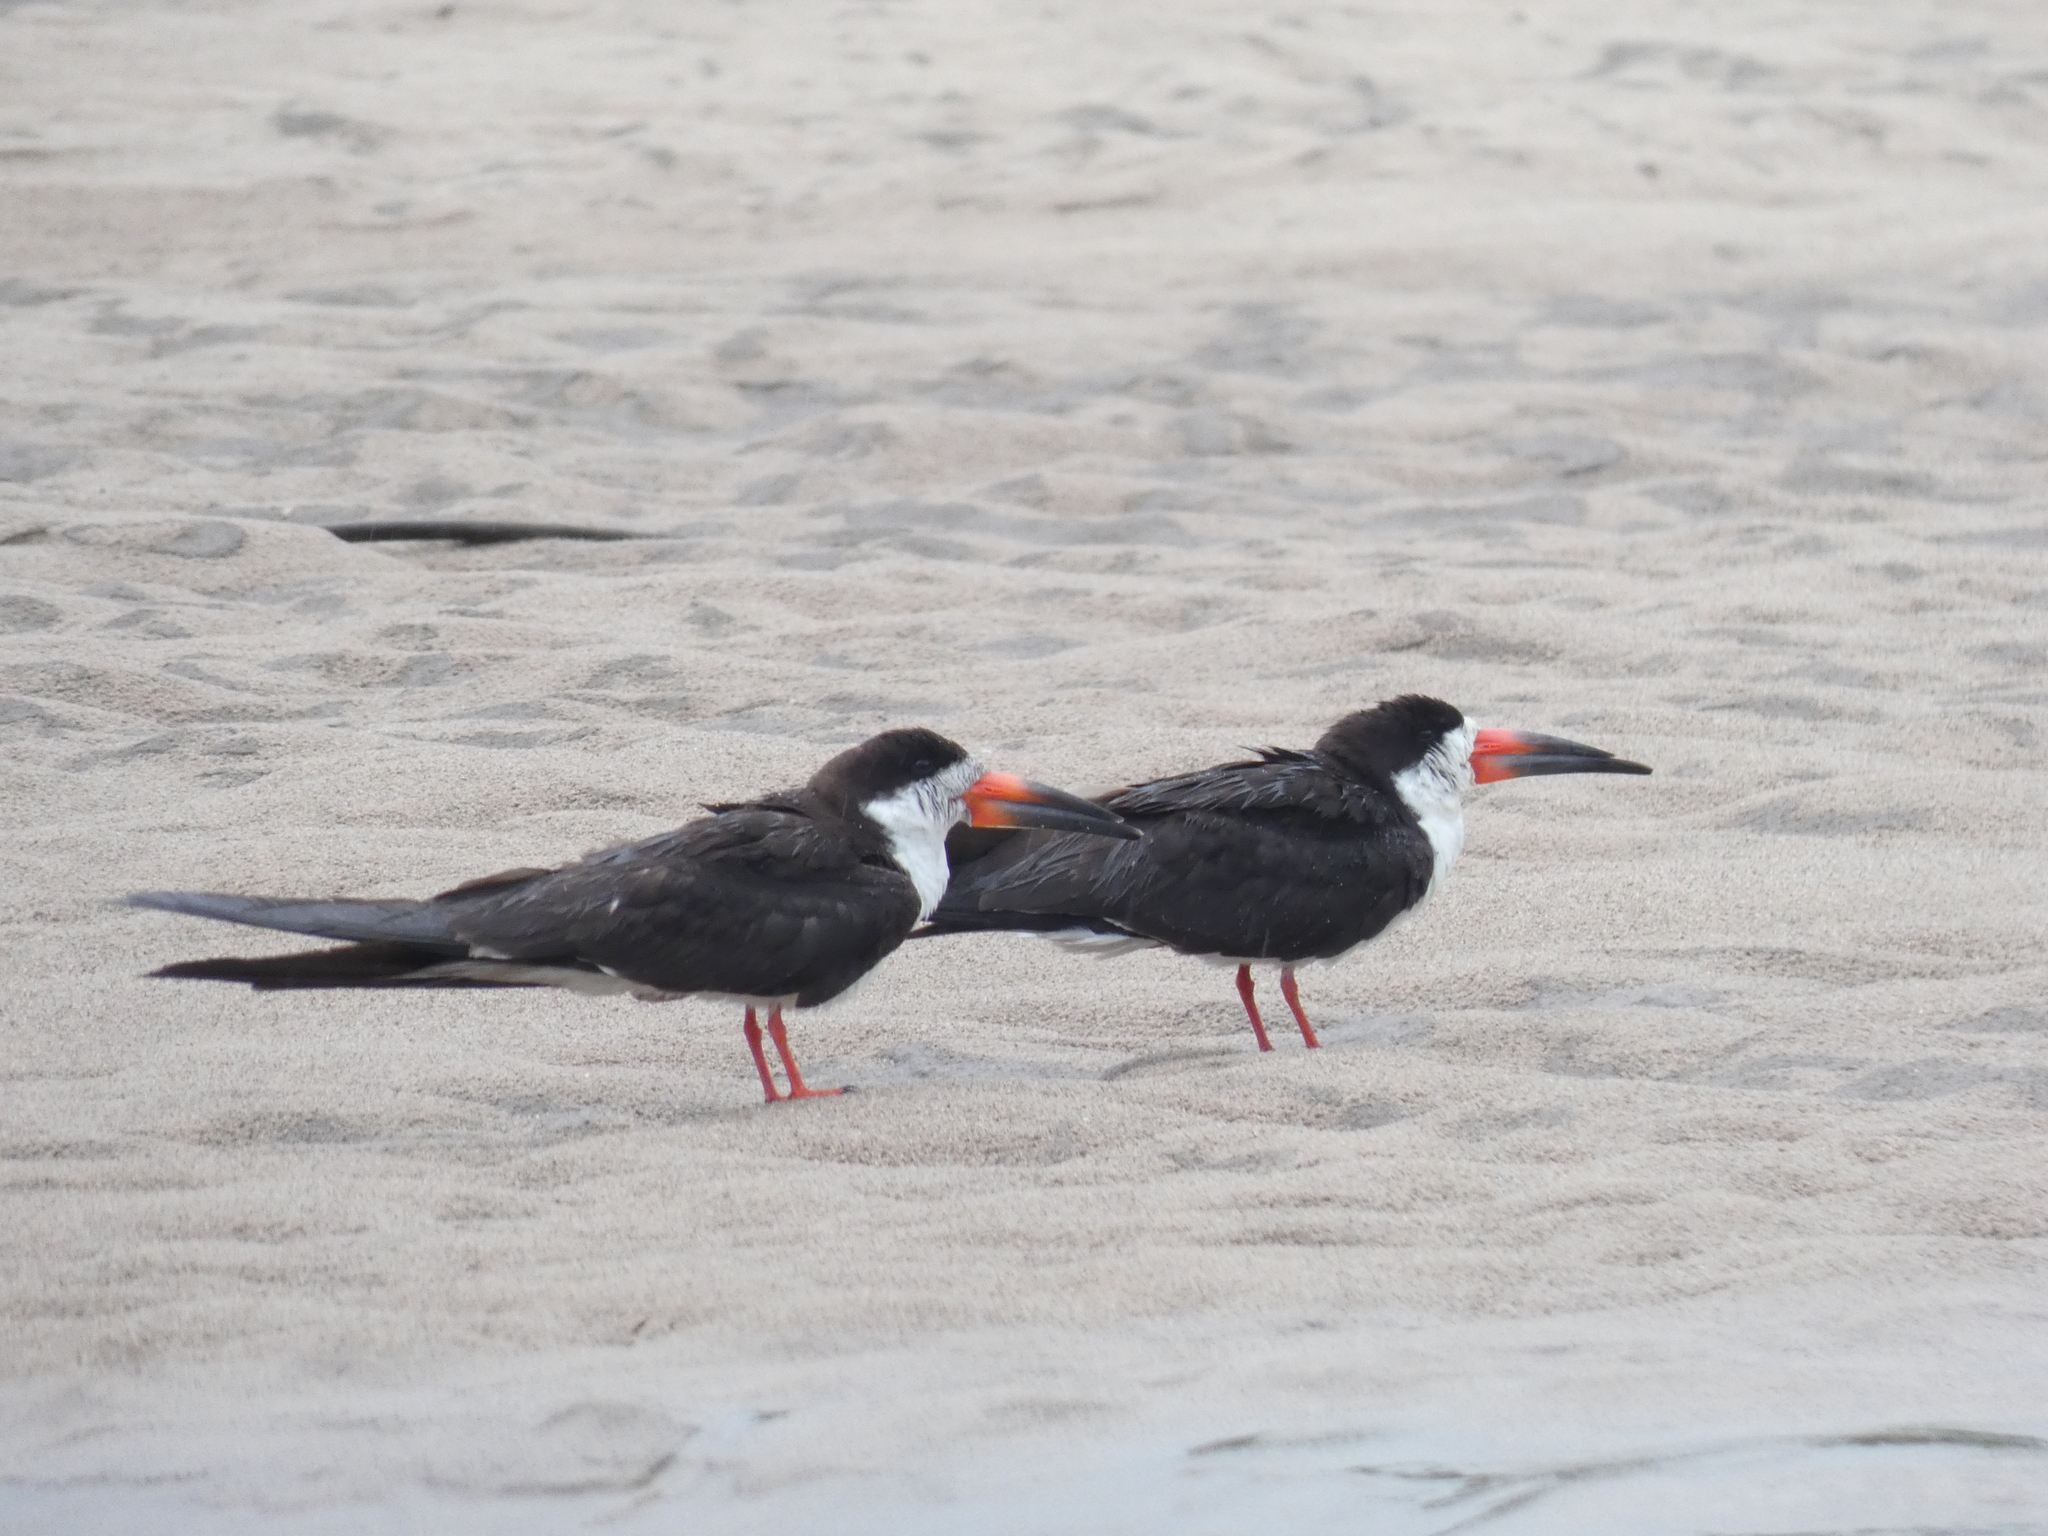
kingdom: Animalia
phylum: Chordata
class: Aves
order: Charadriiformes
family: Laridae
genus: Rynchops
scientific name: Rynchops niger
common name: Black skimmer
